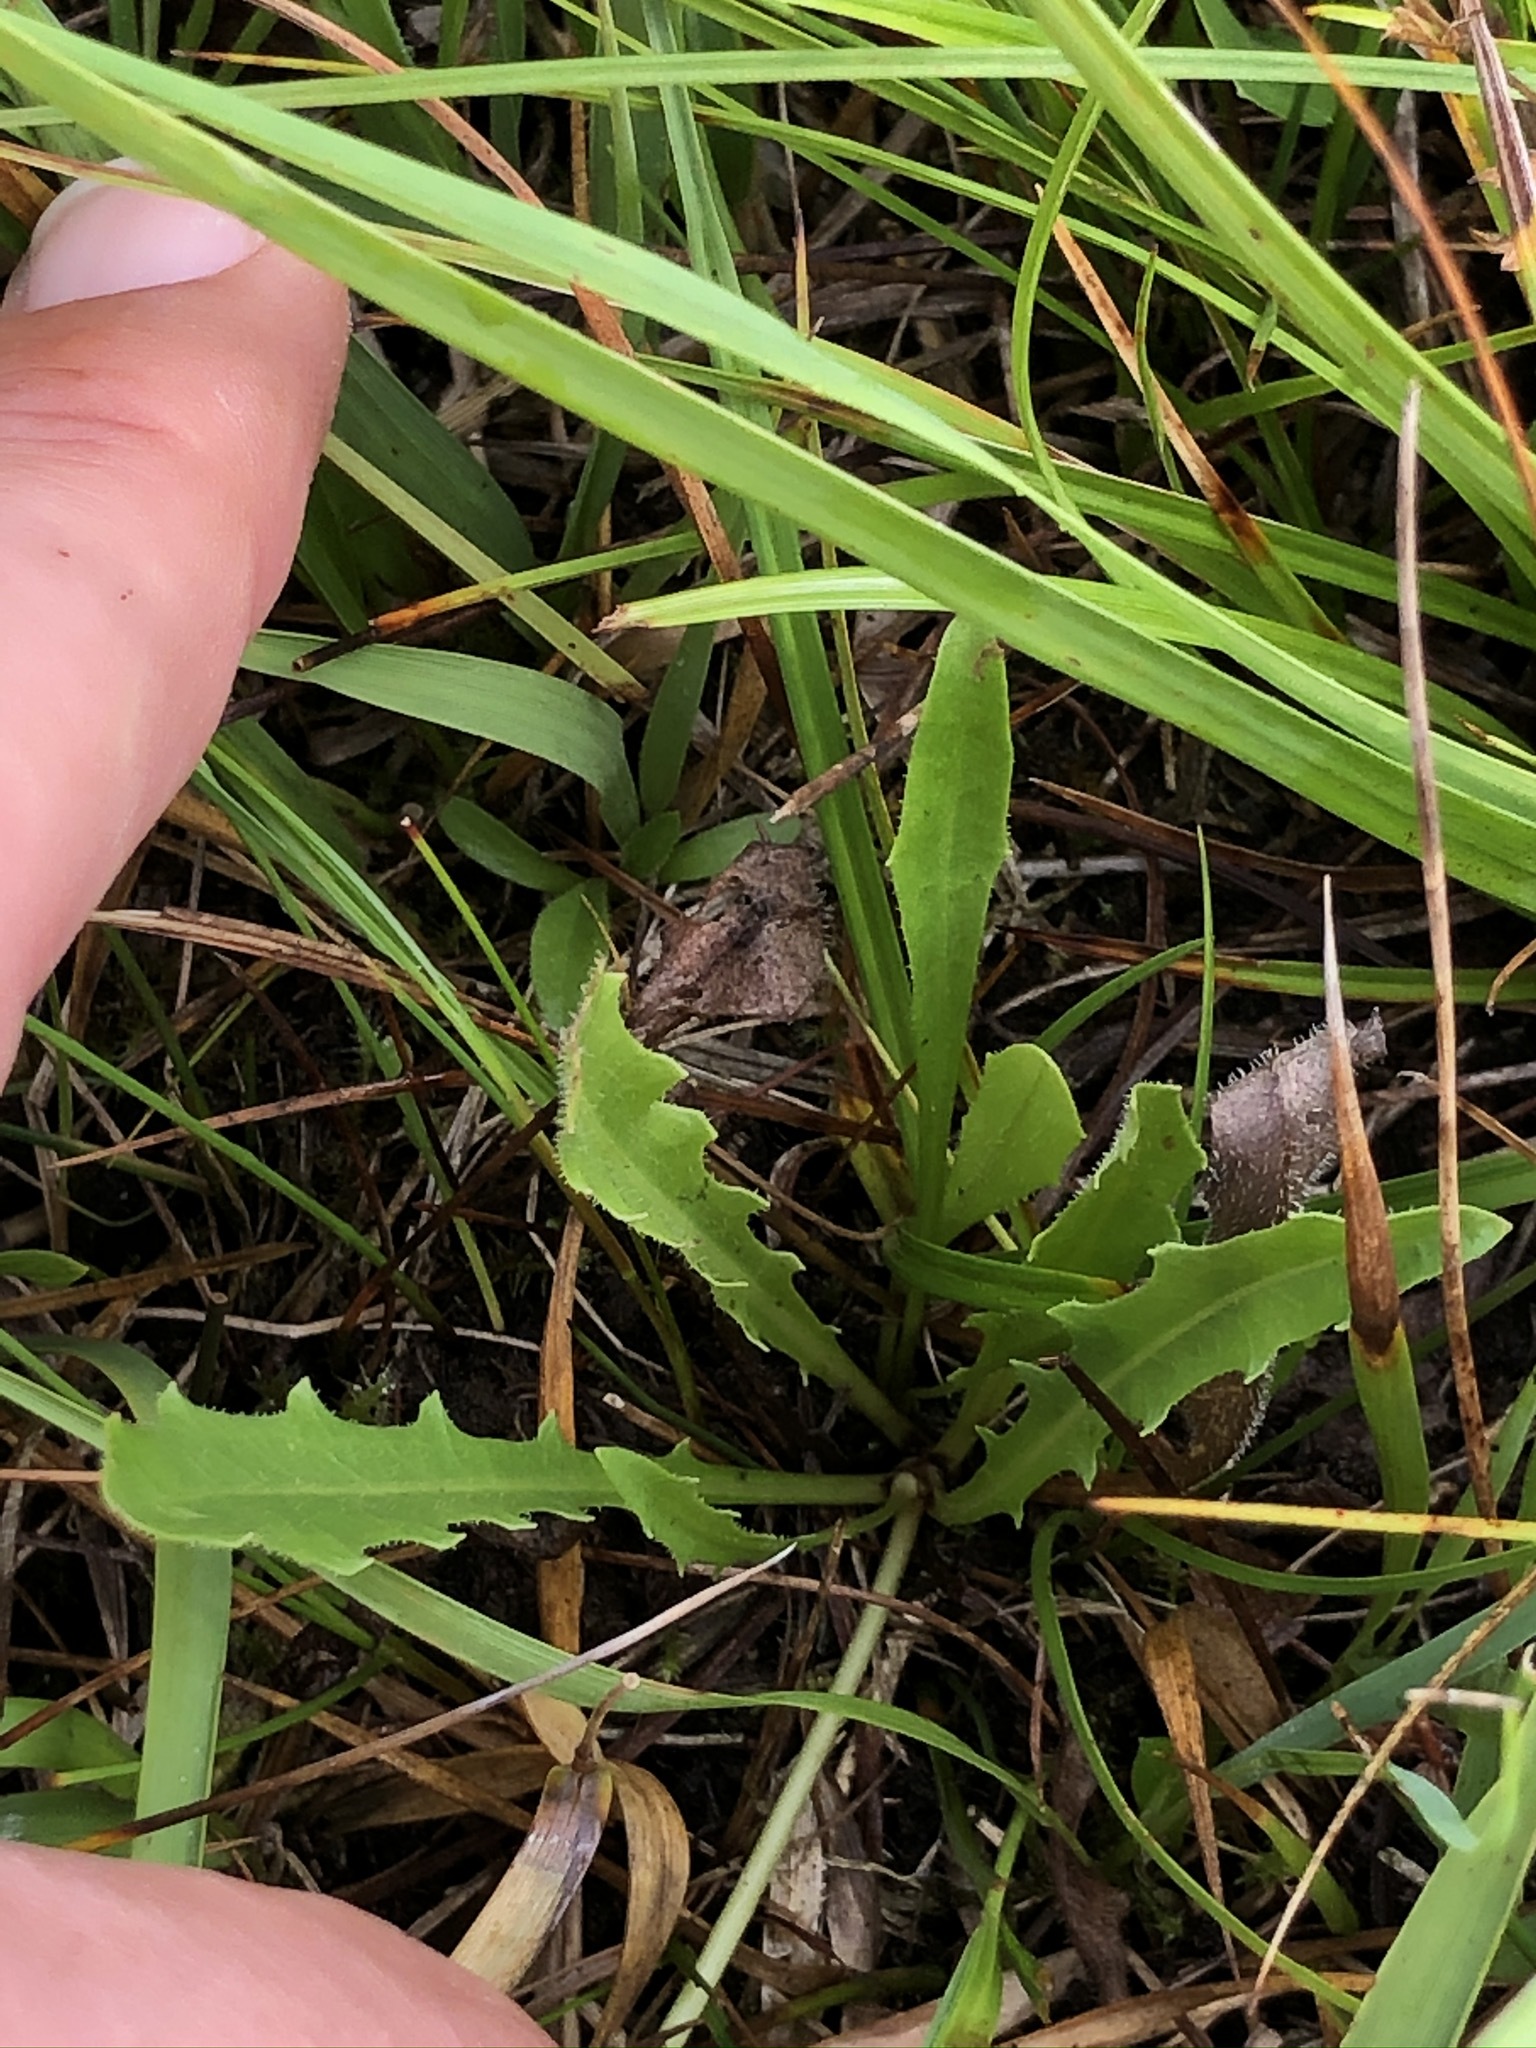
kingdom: Plantae
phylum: Tracheophyta
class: Magnoliopsida
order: Asterales
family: Asteraceae
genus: Leontodon
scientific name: Leontodon hispidus
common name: Rough hawkbit
